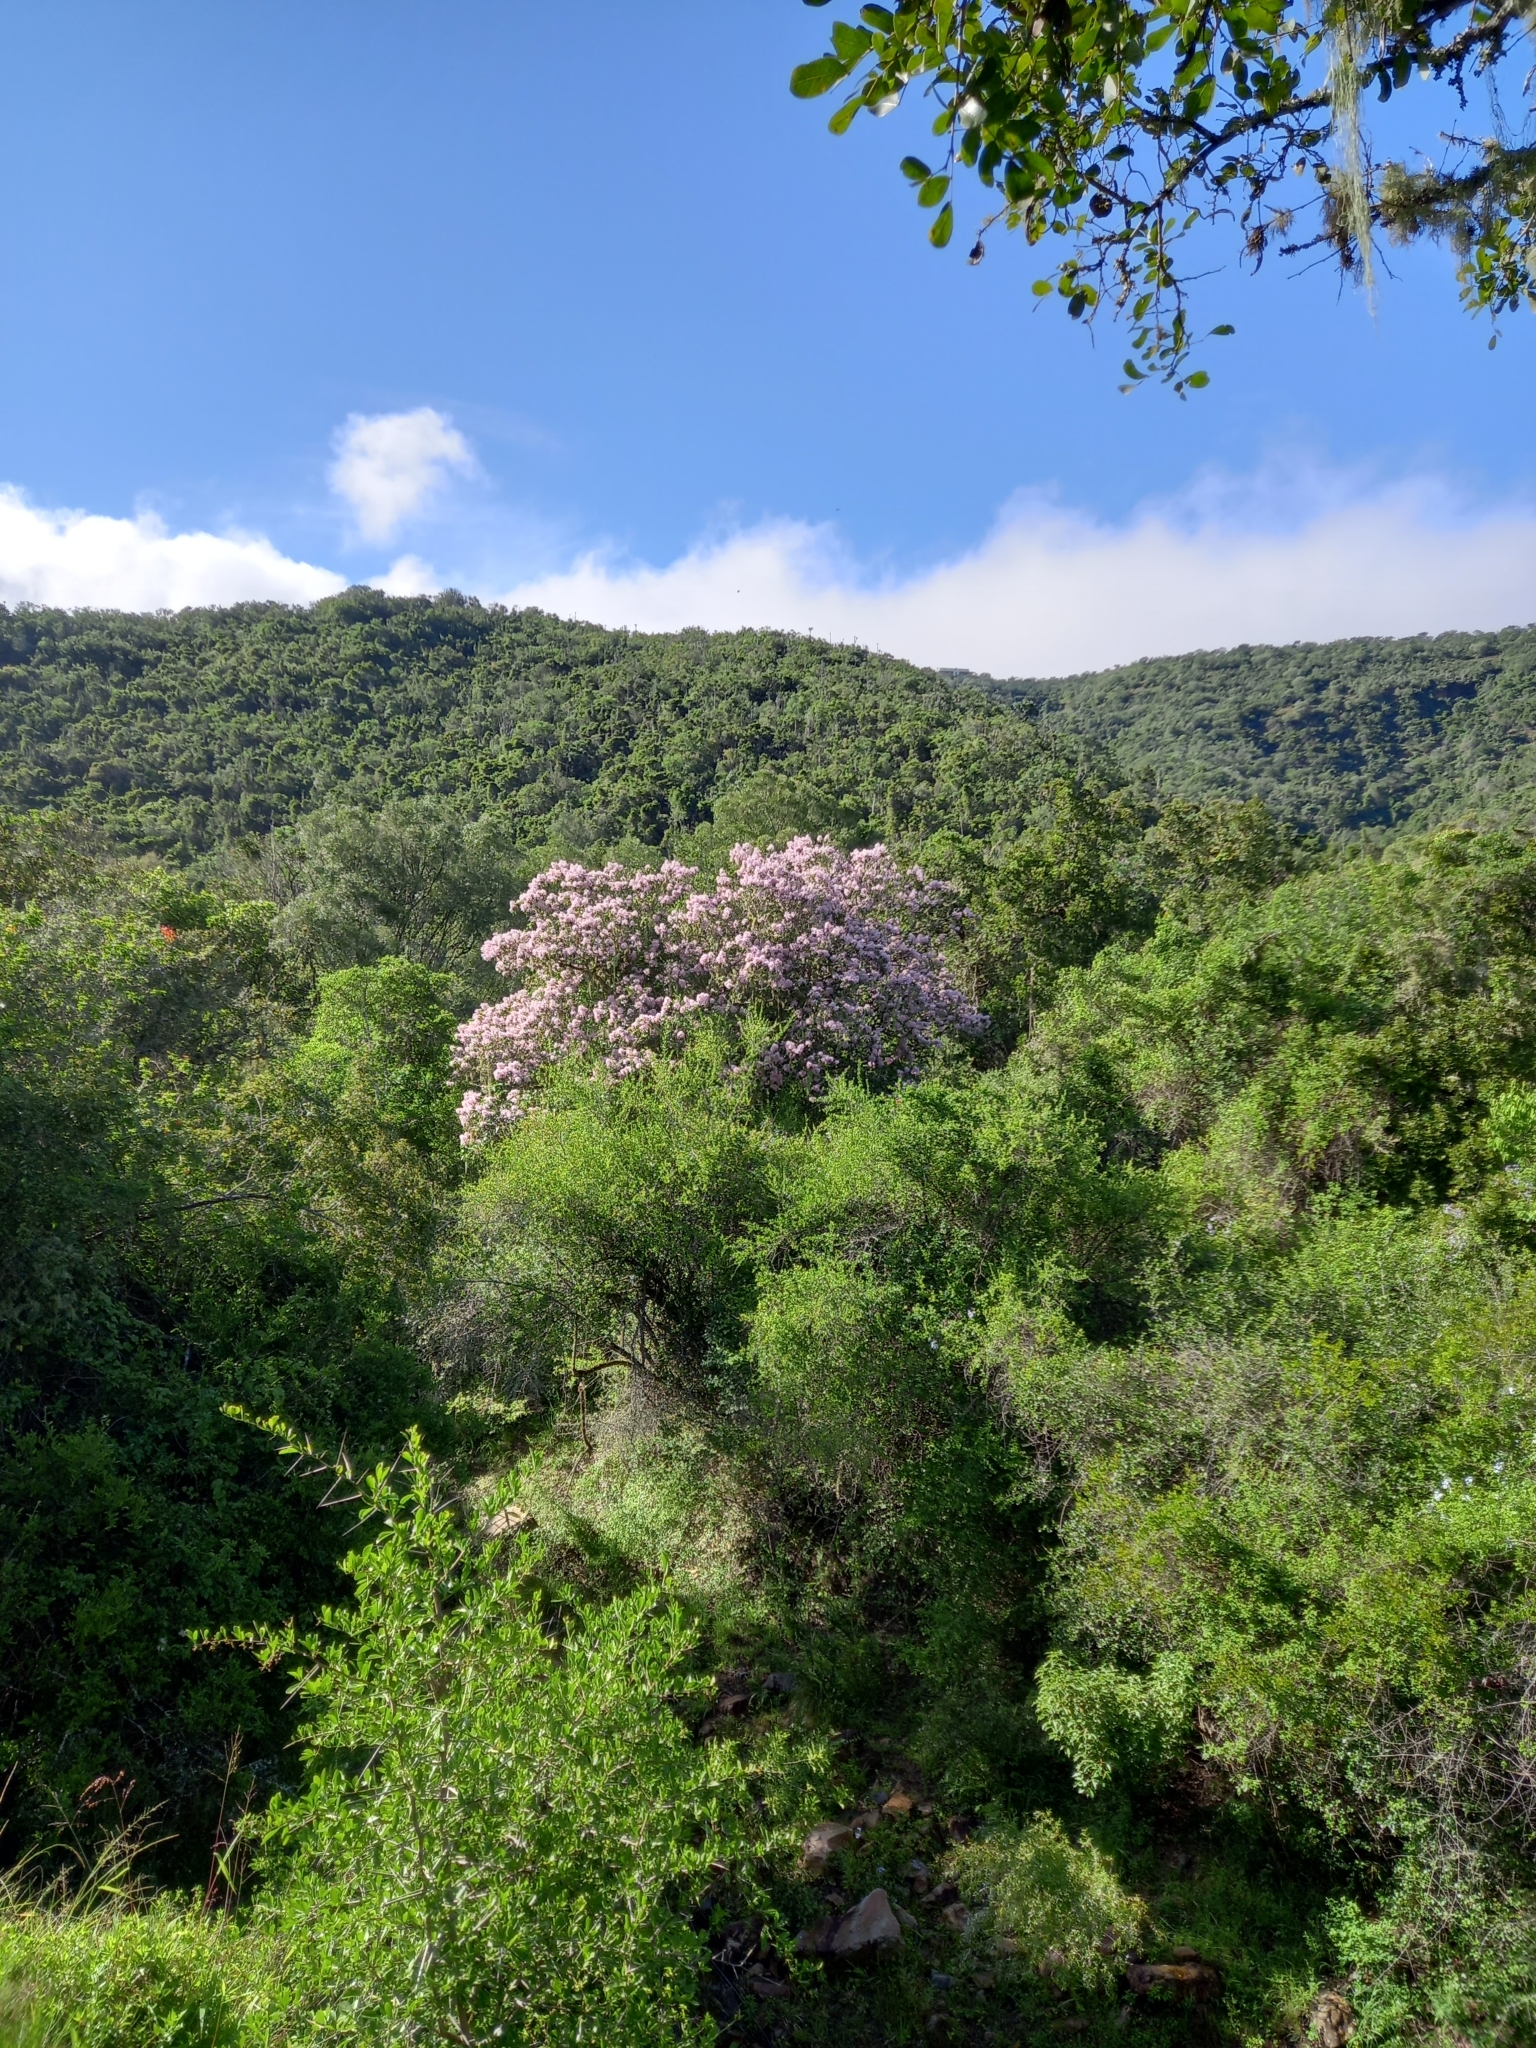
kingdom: Plantae
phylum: Tracheophyta
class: Magnoliopsida
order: Sapindales
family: Rutaceae
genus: Calodendrum
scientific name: Calodendrum capense
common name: Cape chestnut
